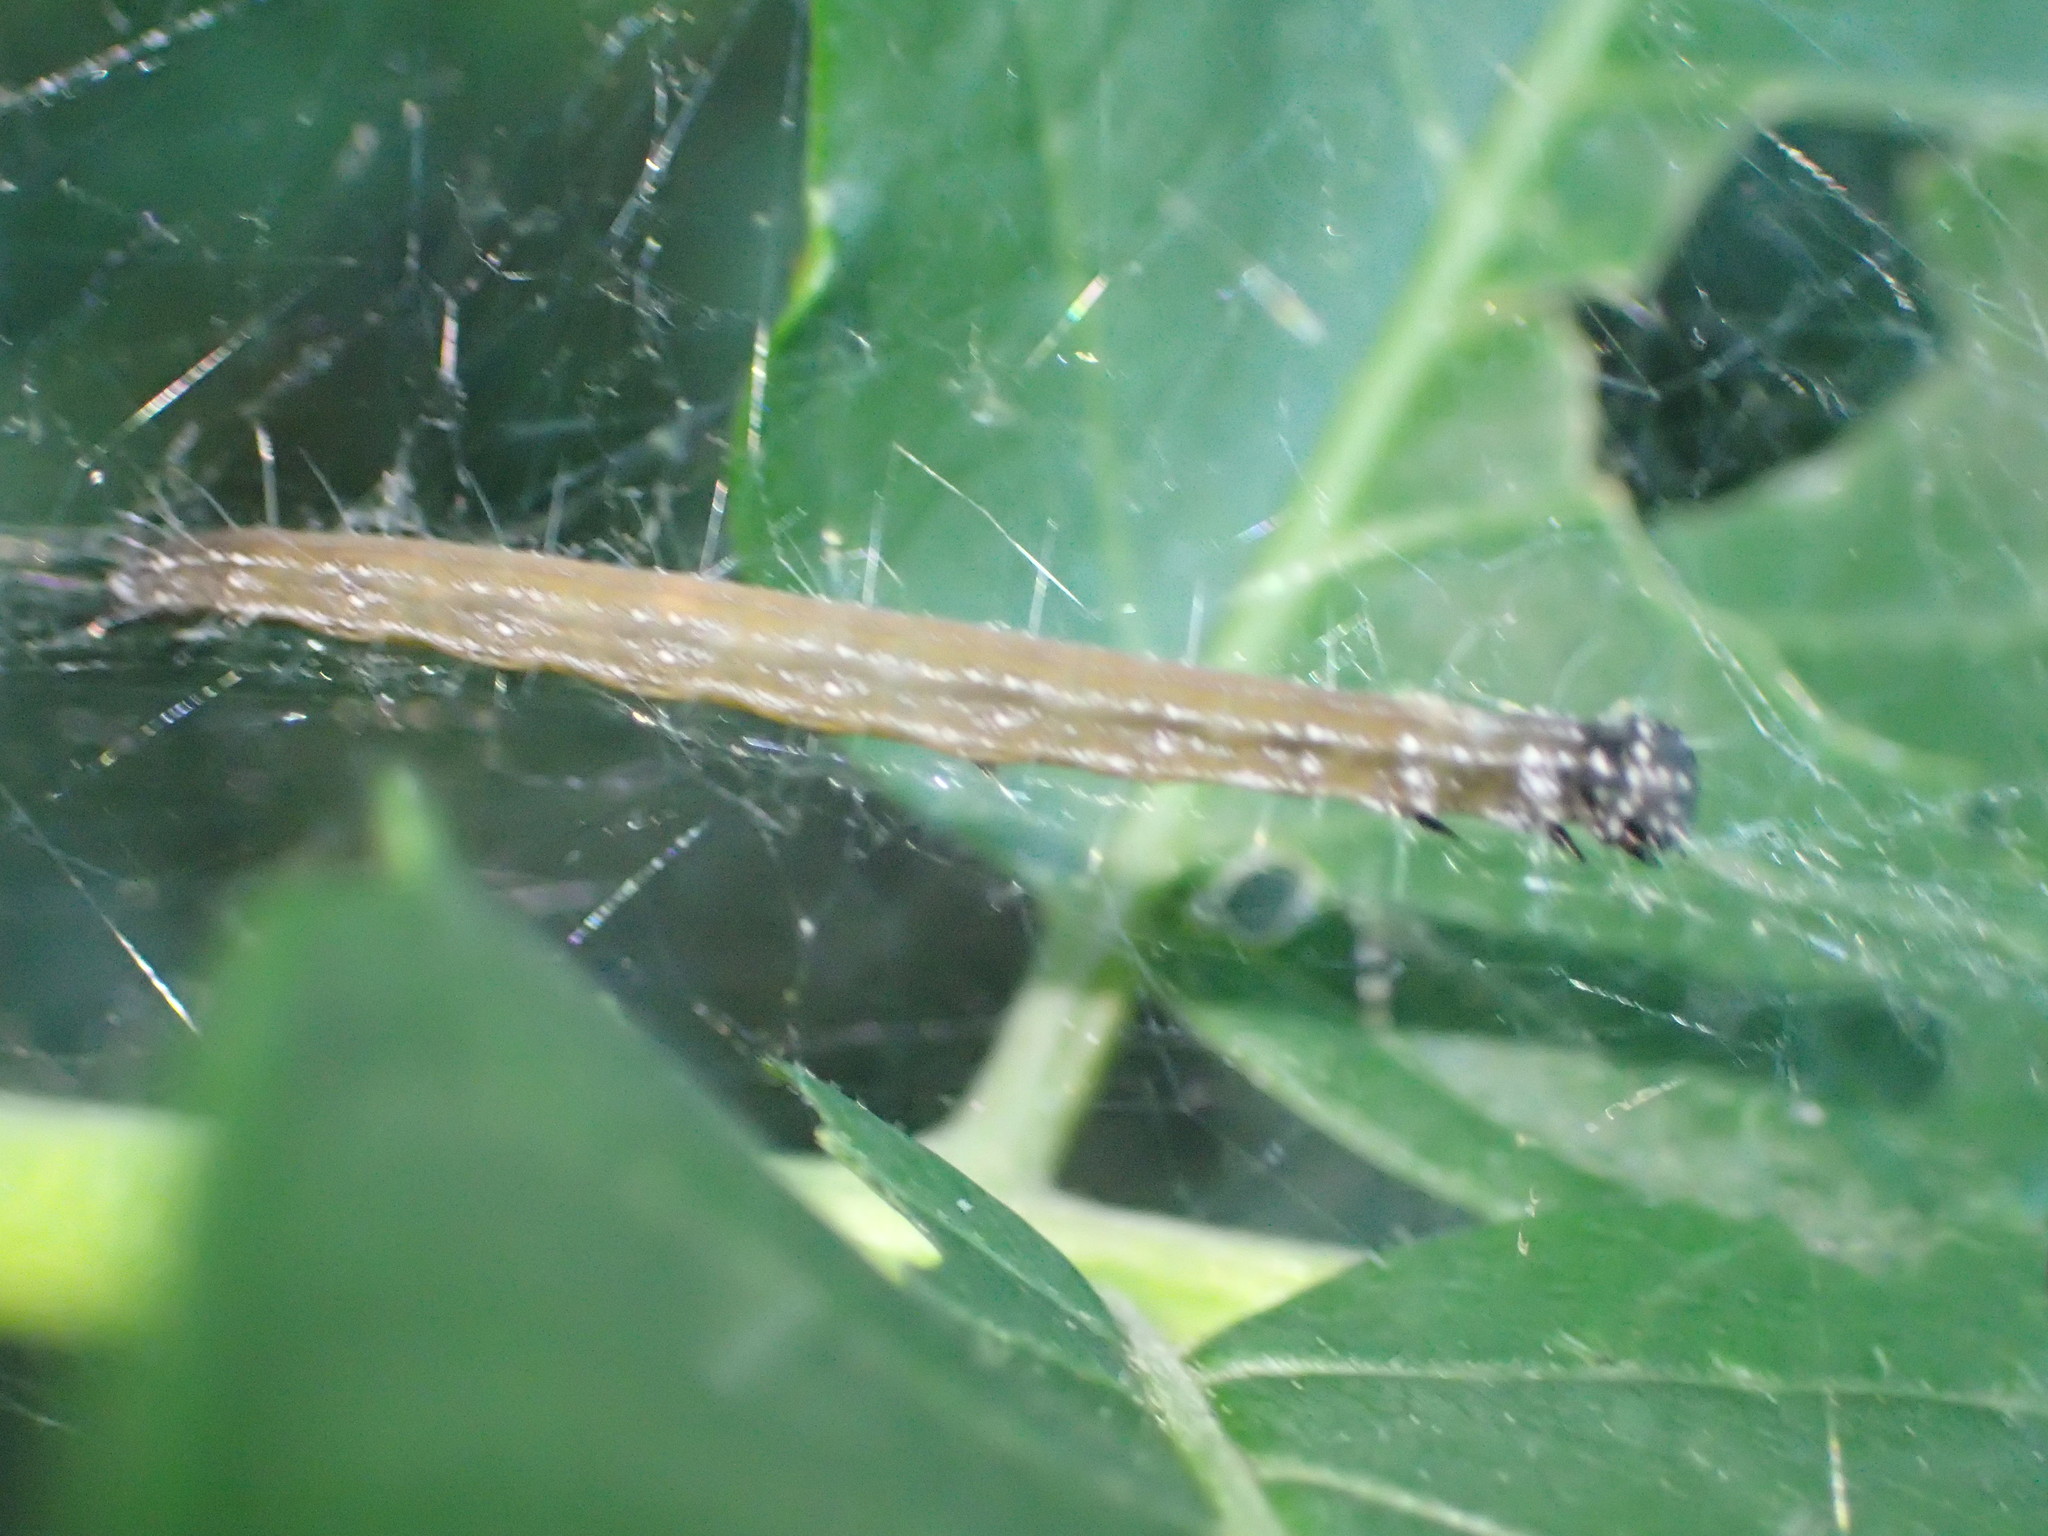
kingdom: Animalia
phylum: Arthropoda
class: Insecta
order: Lepidoptera
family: Attevidae
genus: Atteva
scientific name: Atteva punctella
